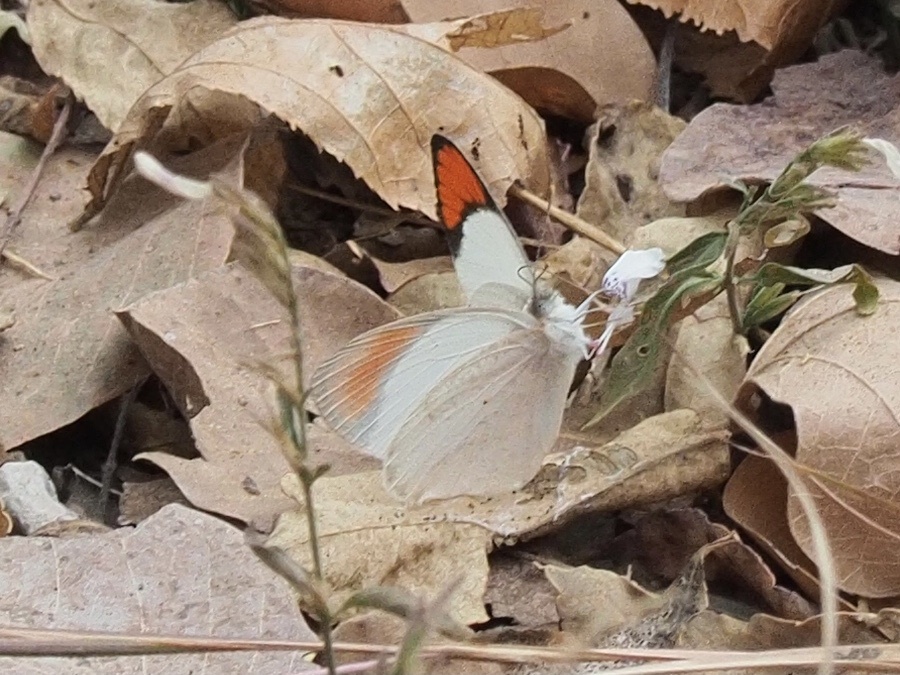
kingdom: Animalia
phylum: Arthropoda
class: Insecta
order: Lepidoptera
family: Pieridae
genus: Colotis
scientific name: Colotis euippe
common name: Round-winged orange tip
